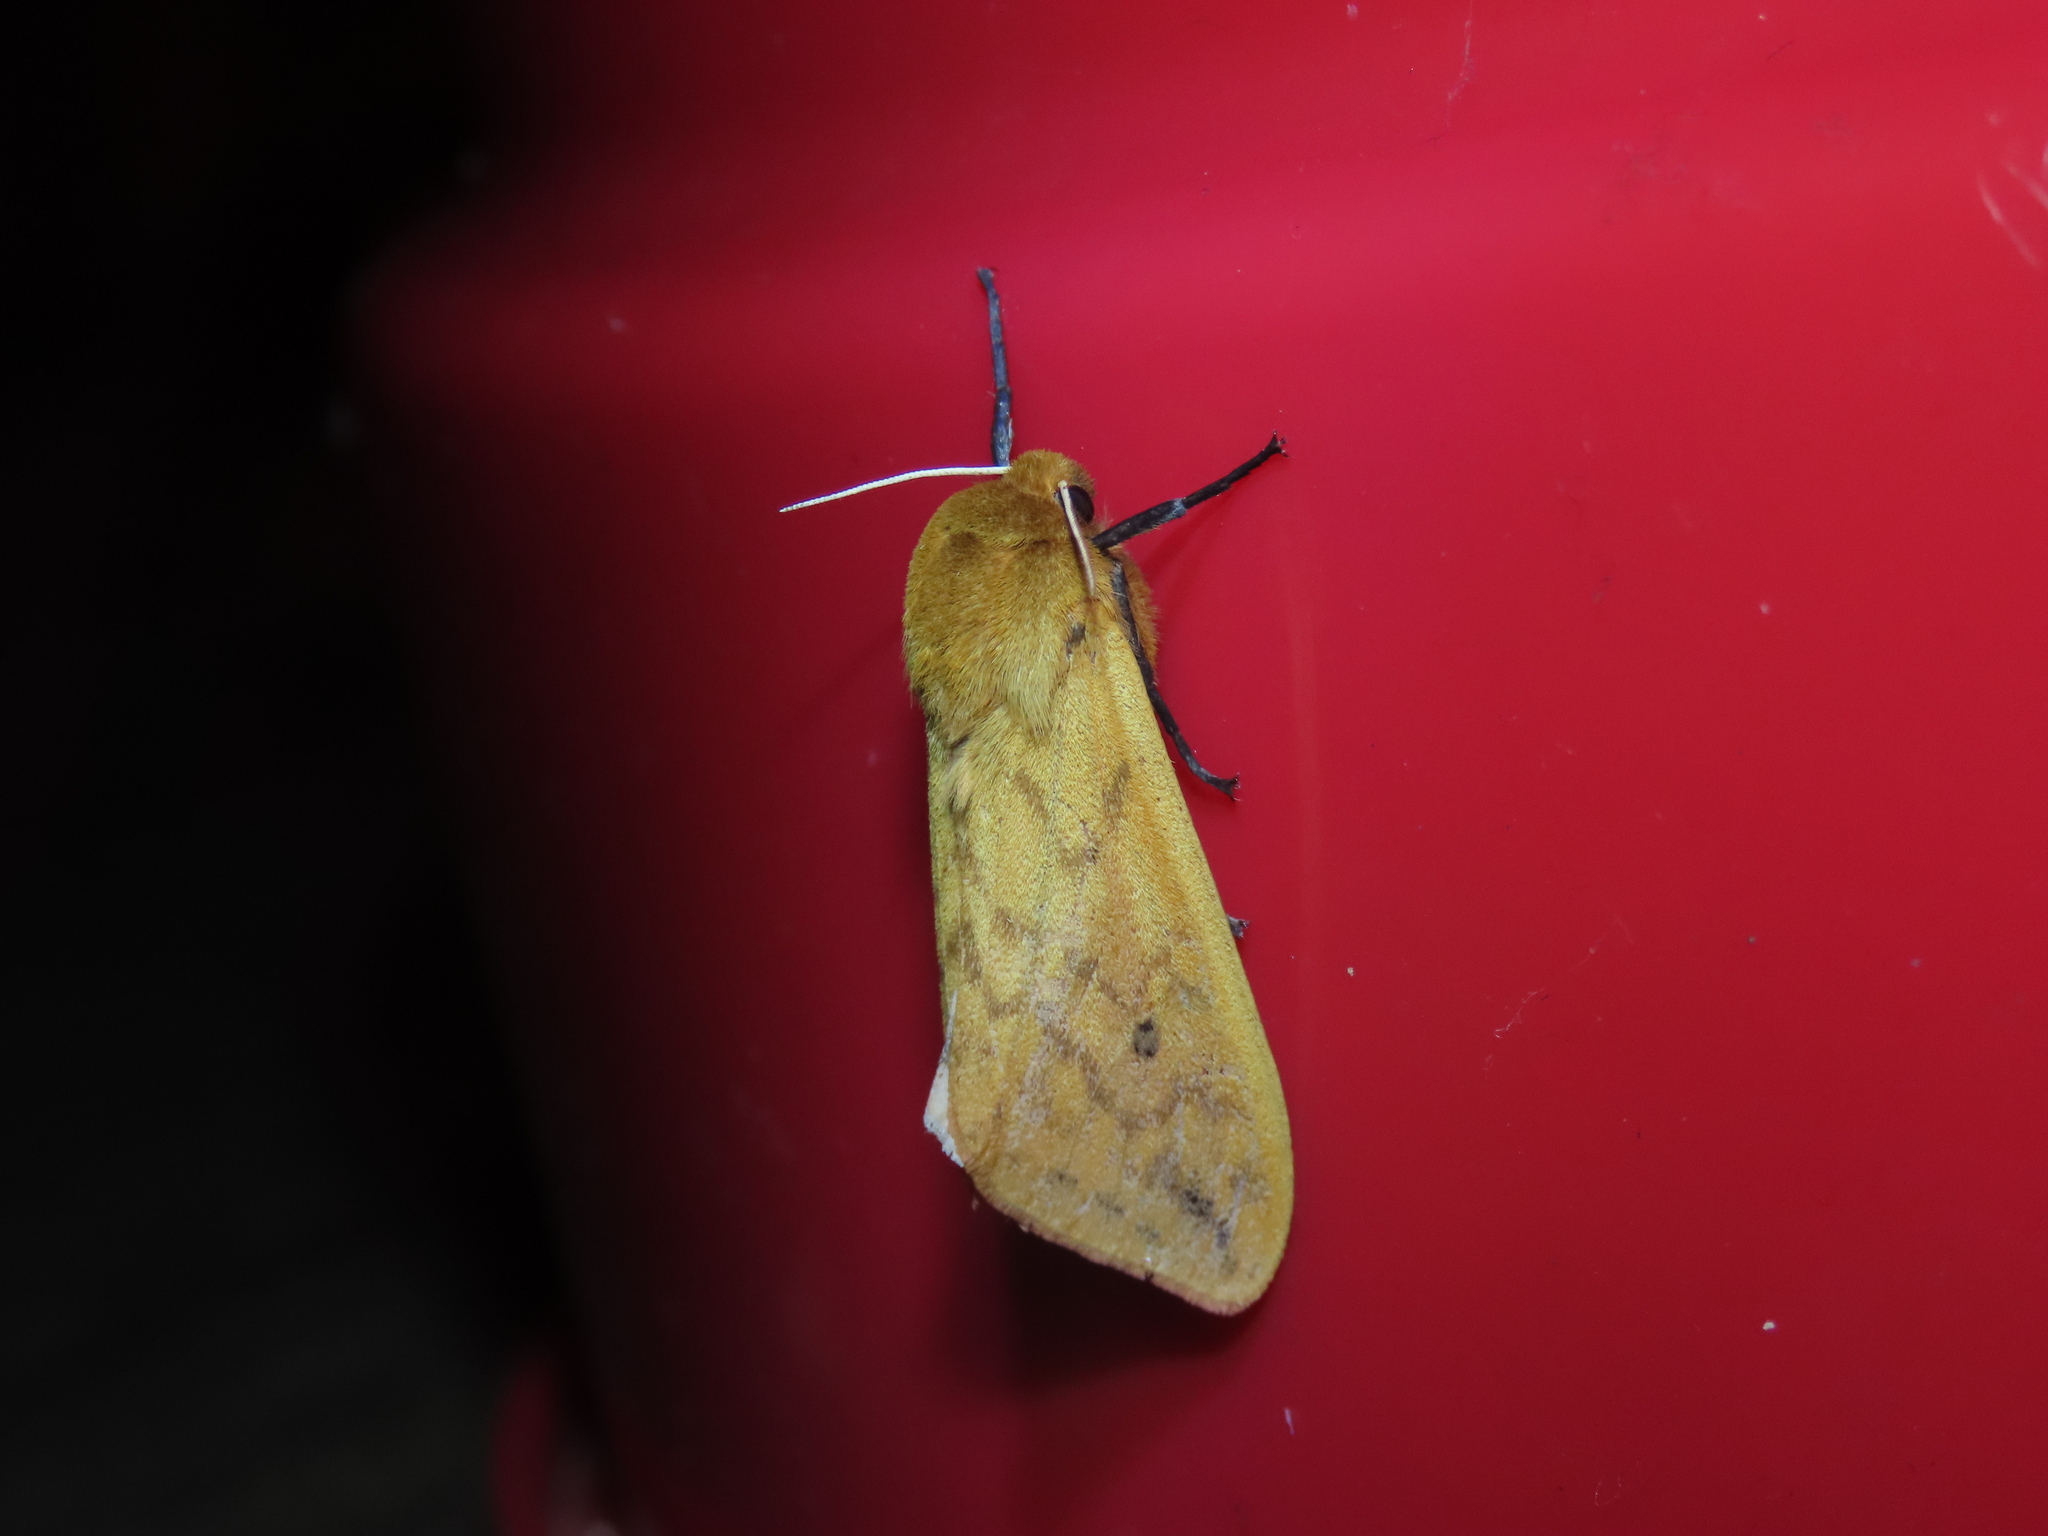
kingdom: Animalia
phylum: Arthropoda
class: Insecta
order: Lepidoptera
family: Erebidae
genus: Pyrrharctia
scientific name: Pyrrharctia isabella
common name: Isabella tiger moth
